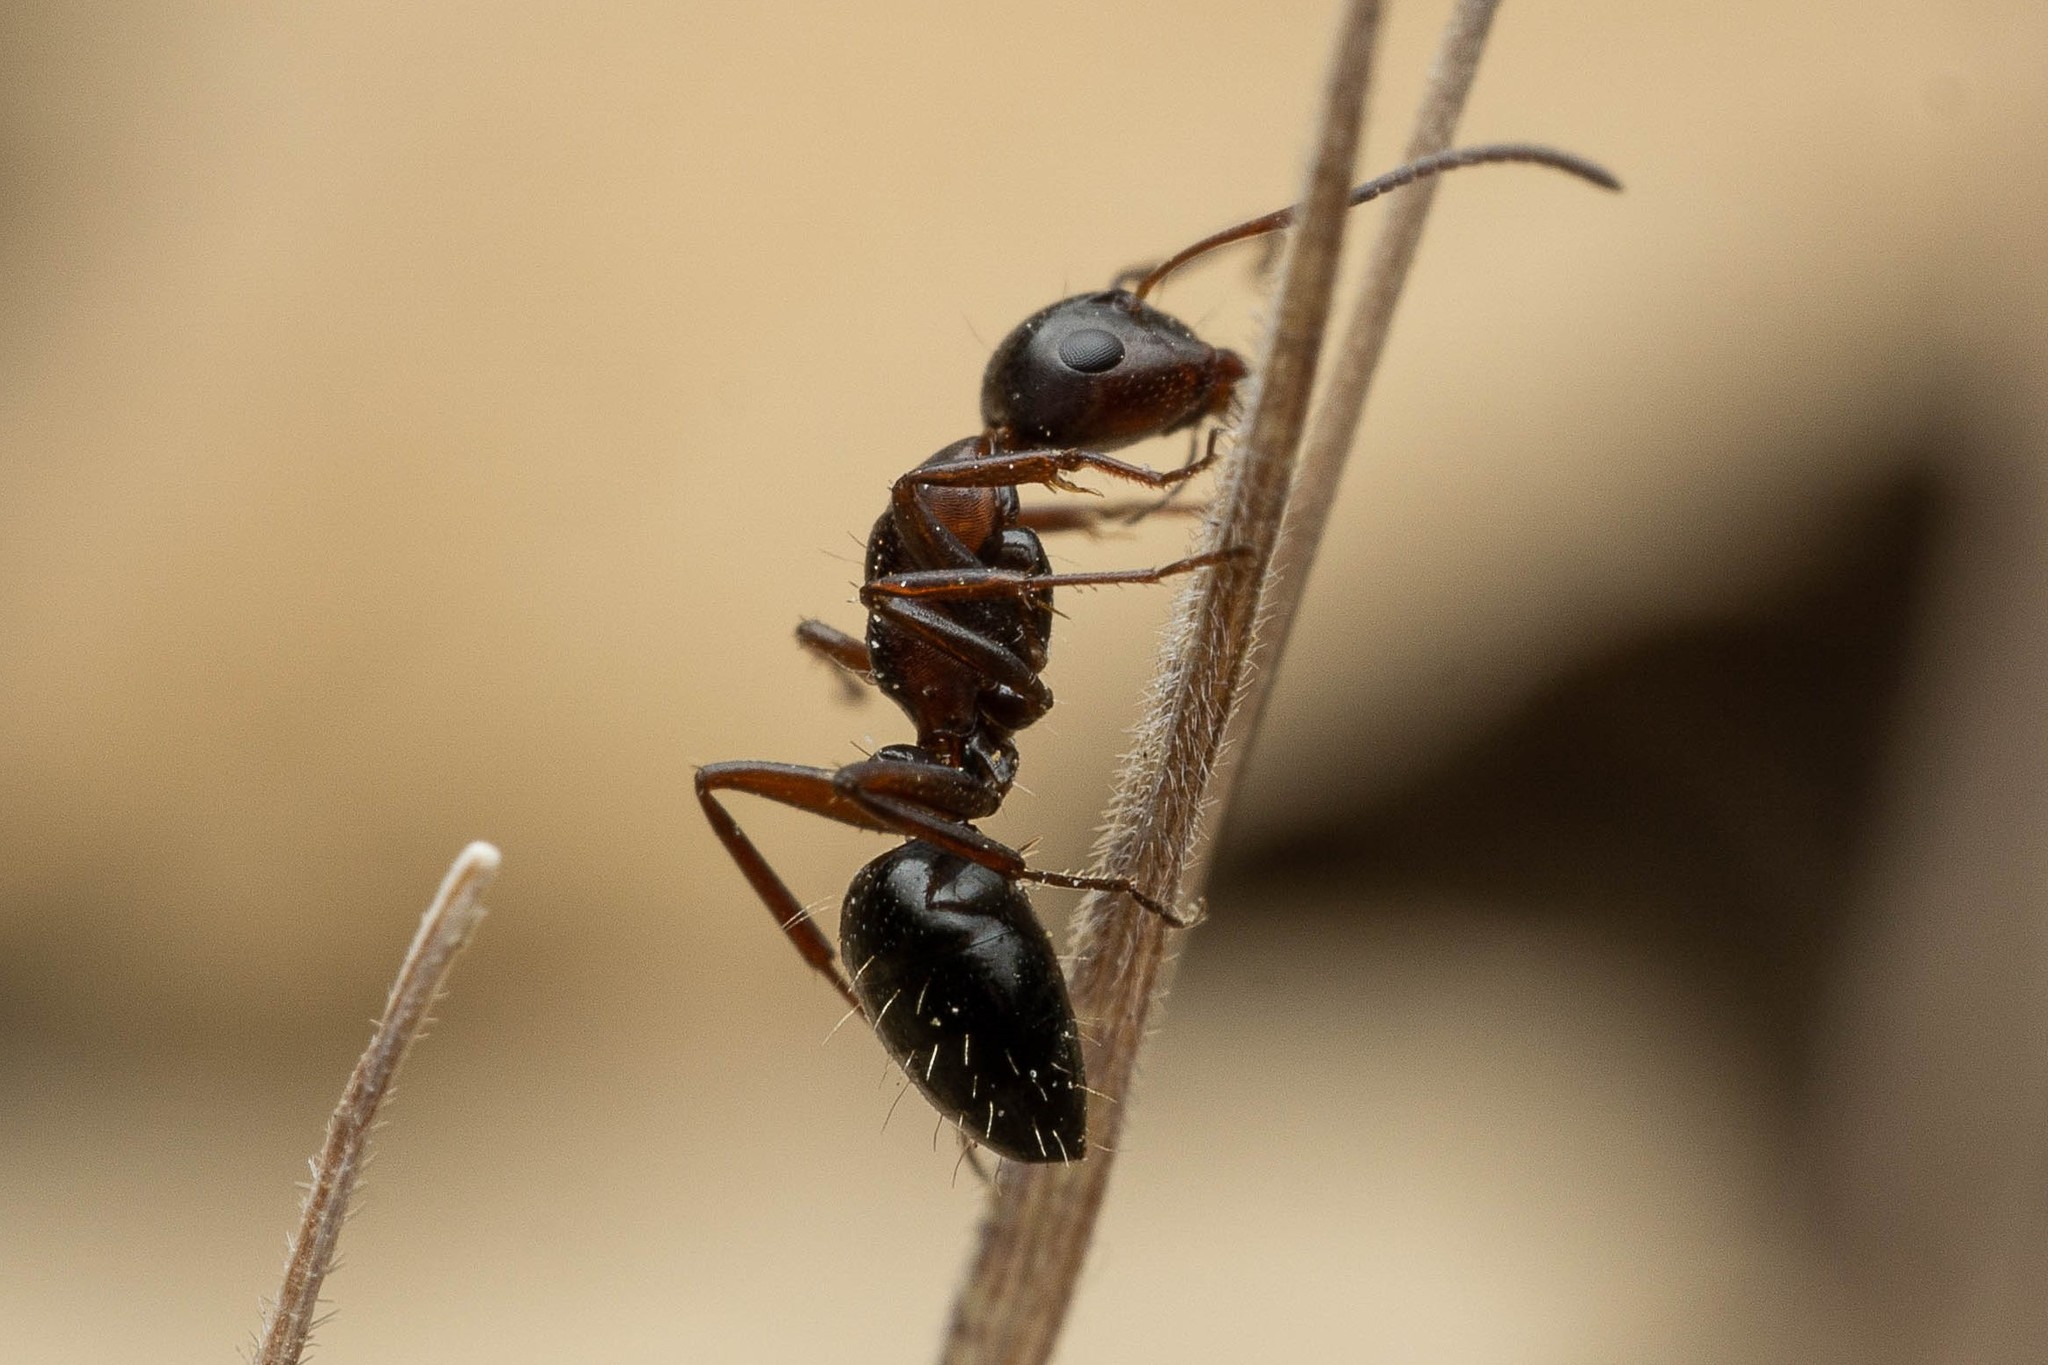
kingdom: Animalia
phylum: Arthropoda
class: Insecta
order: Hymenoptera
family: Formicidae
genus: Camponotus
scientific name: Camponotus hyatti
